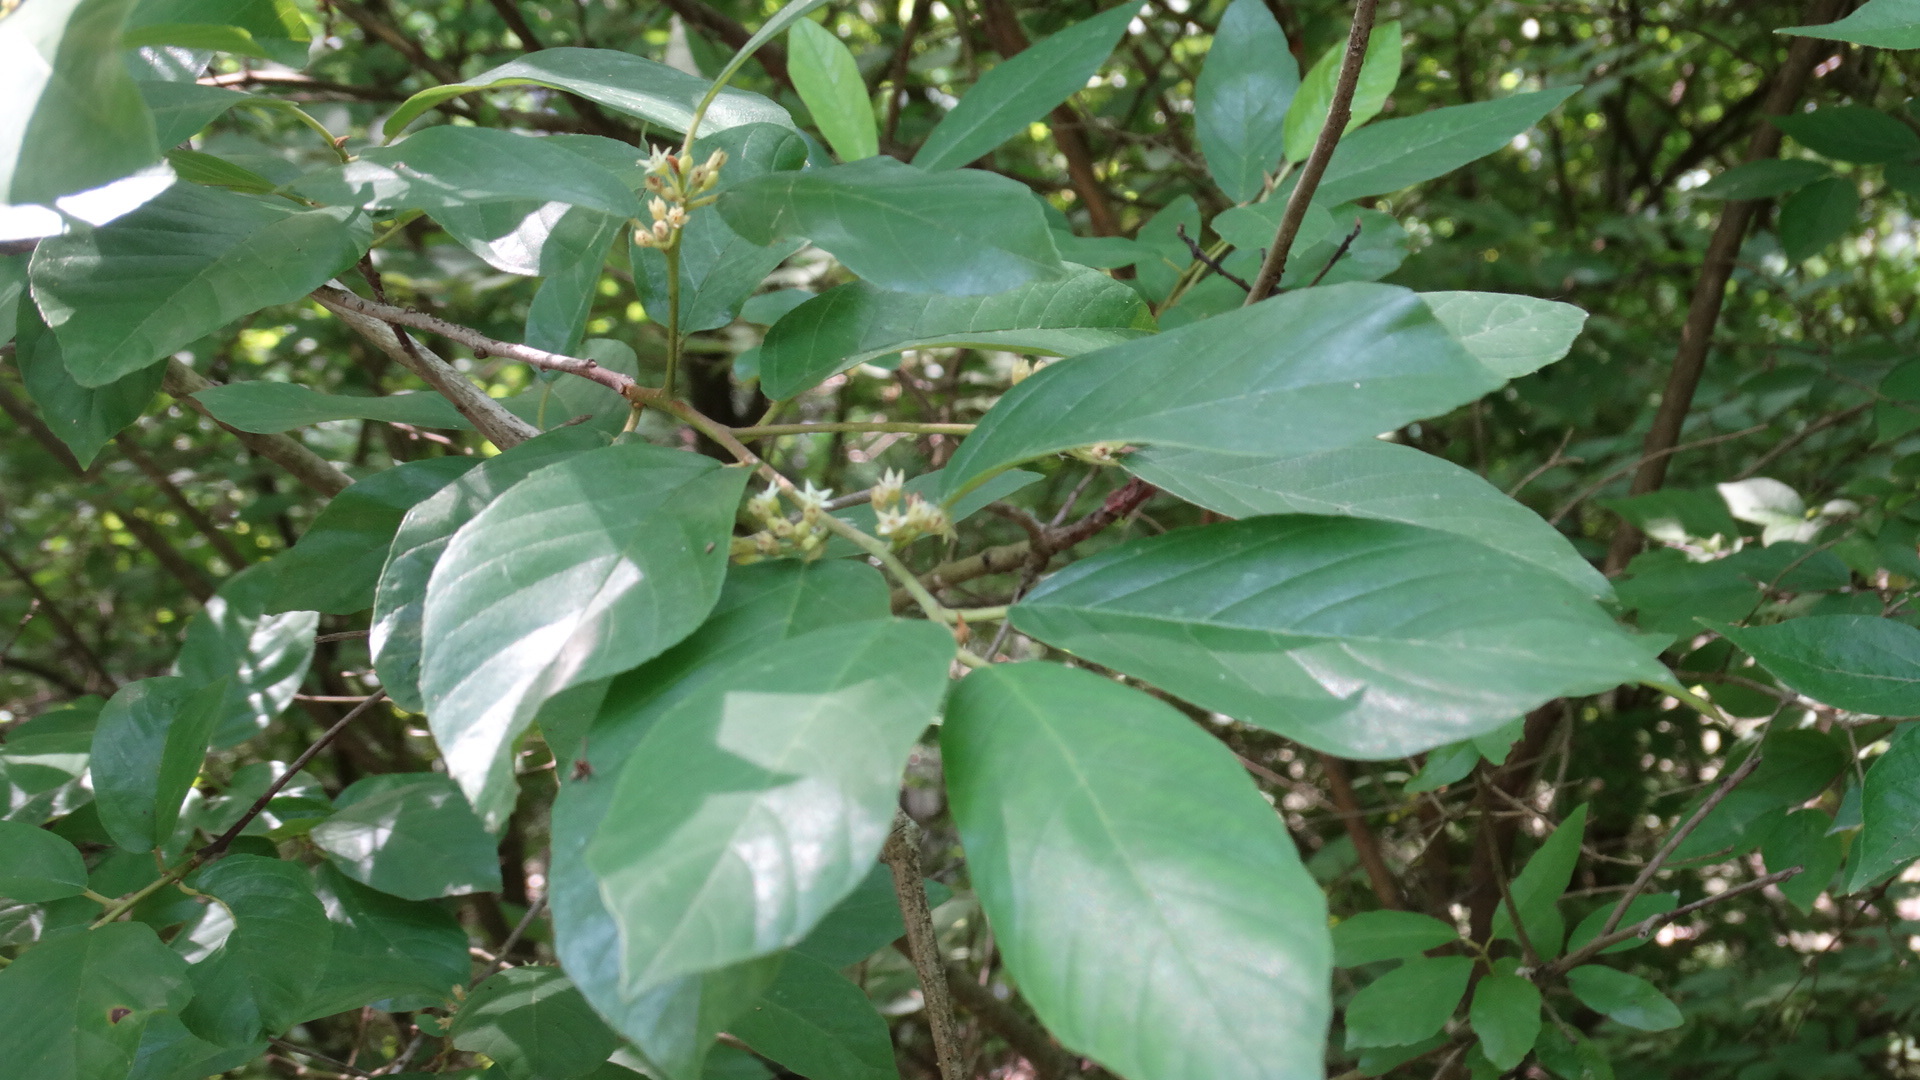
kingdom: Plantae
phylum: Tracheophyta
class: Magnoliopsida
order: Rosales
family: Rhamnaceae
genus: Frangula
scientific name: Frangula caroliniana
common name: Carolina buckthorn
